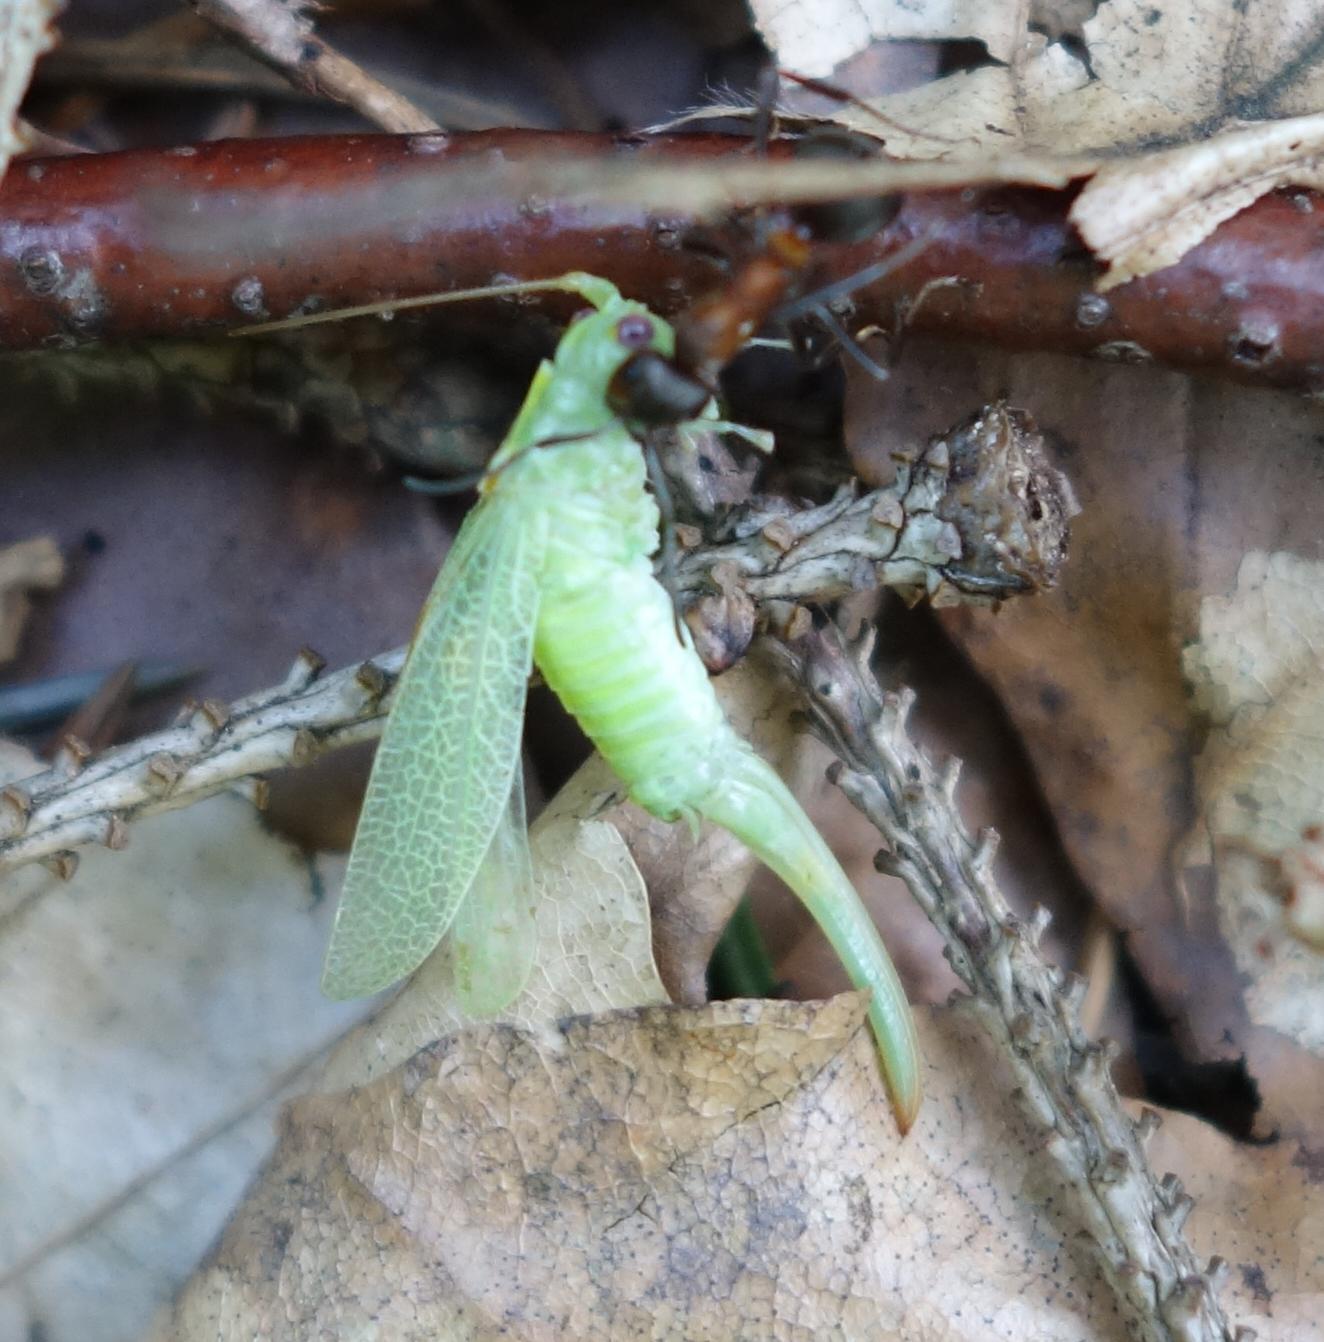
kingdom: Animalia
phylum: Arthropoda
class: Insecta
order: Orthoptera
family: Tettigoniidae
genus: Meconema
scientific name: Meconema thalassinum
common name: Oak bush-cricket
